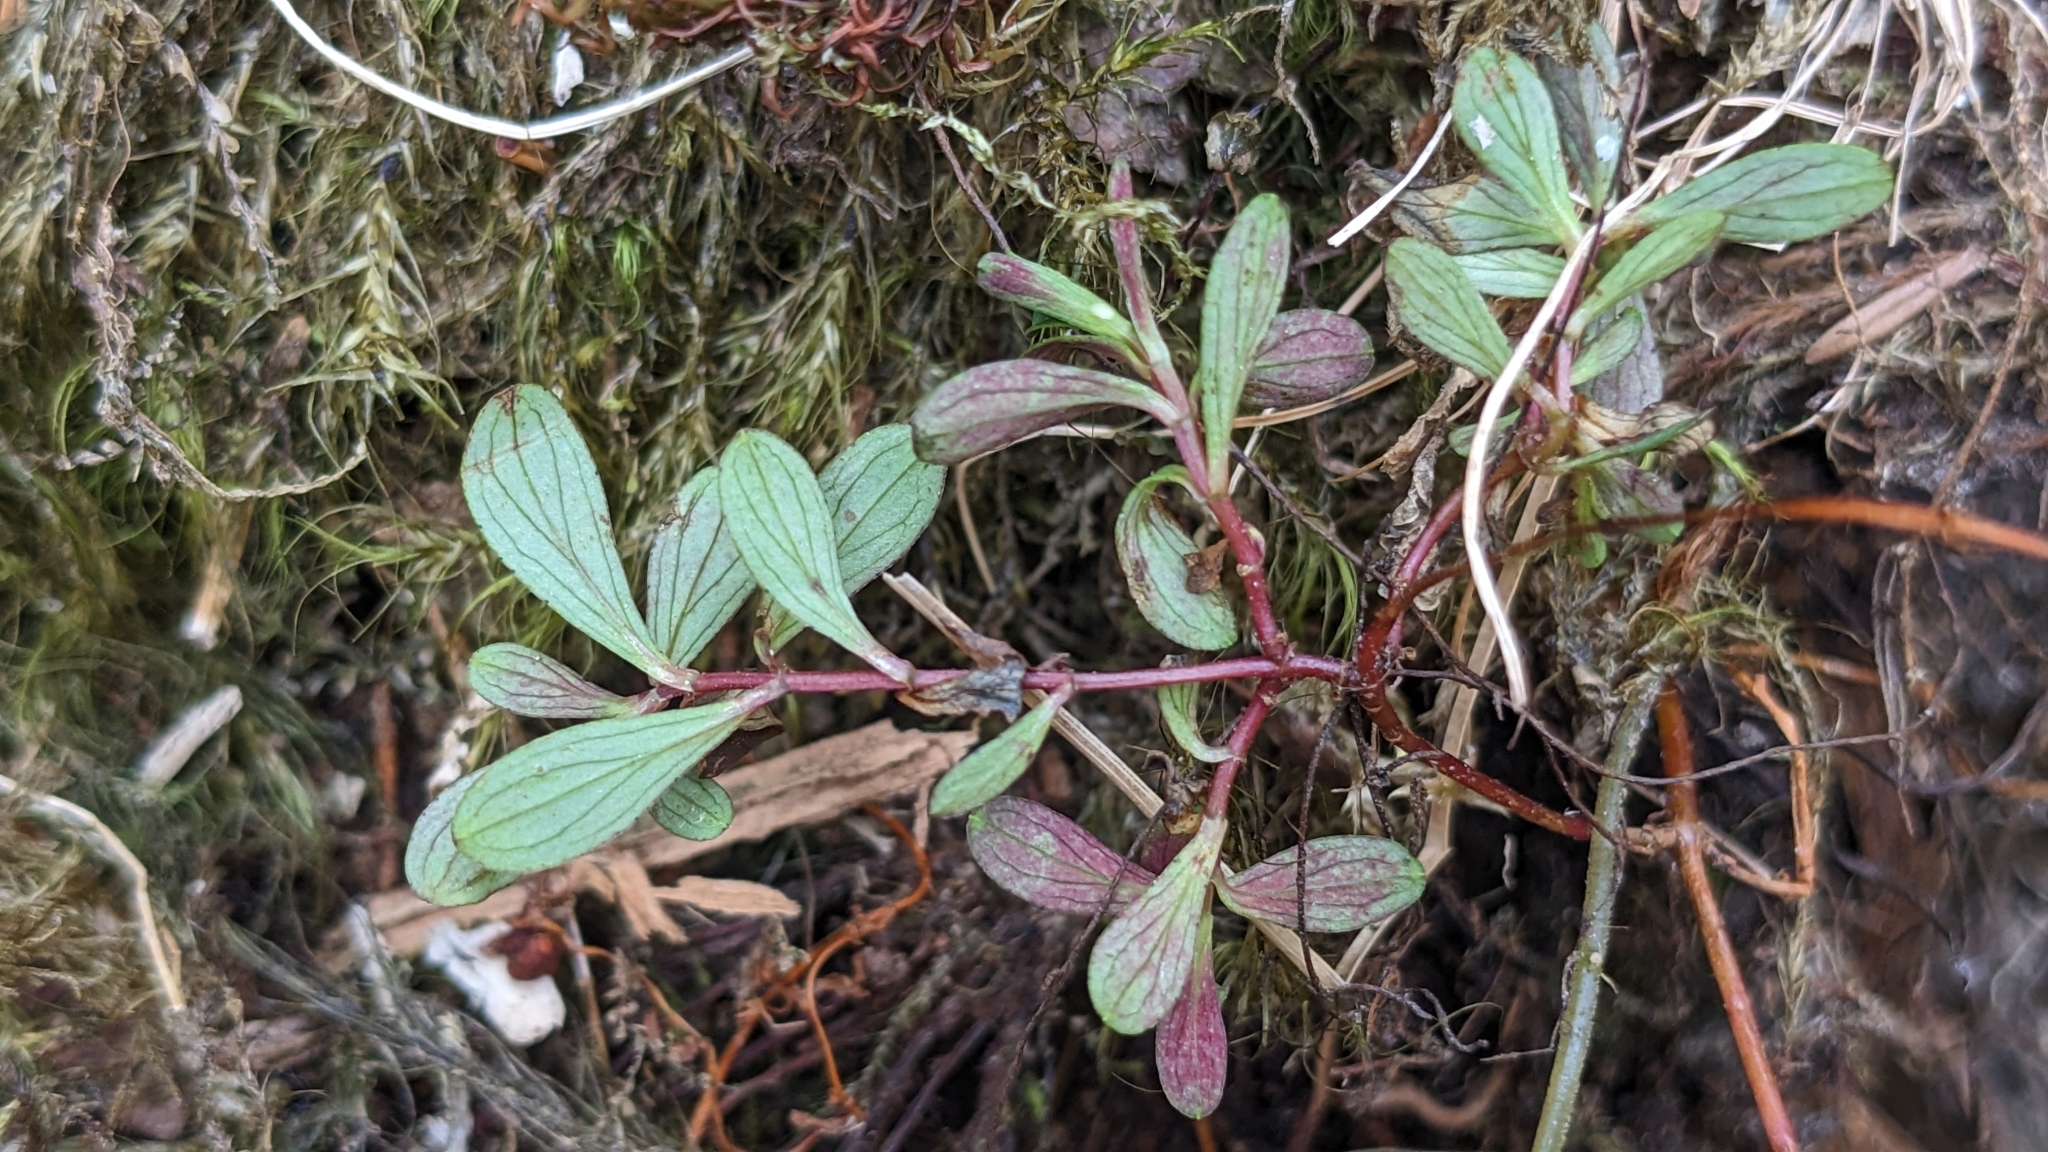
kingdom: Plantae
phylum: Tracheophyta
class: Magnoliopsida
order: Malpighiales
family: Hypericaceae
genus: Hypericum
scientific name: Hypericum nagasawae
